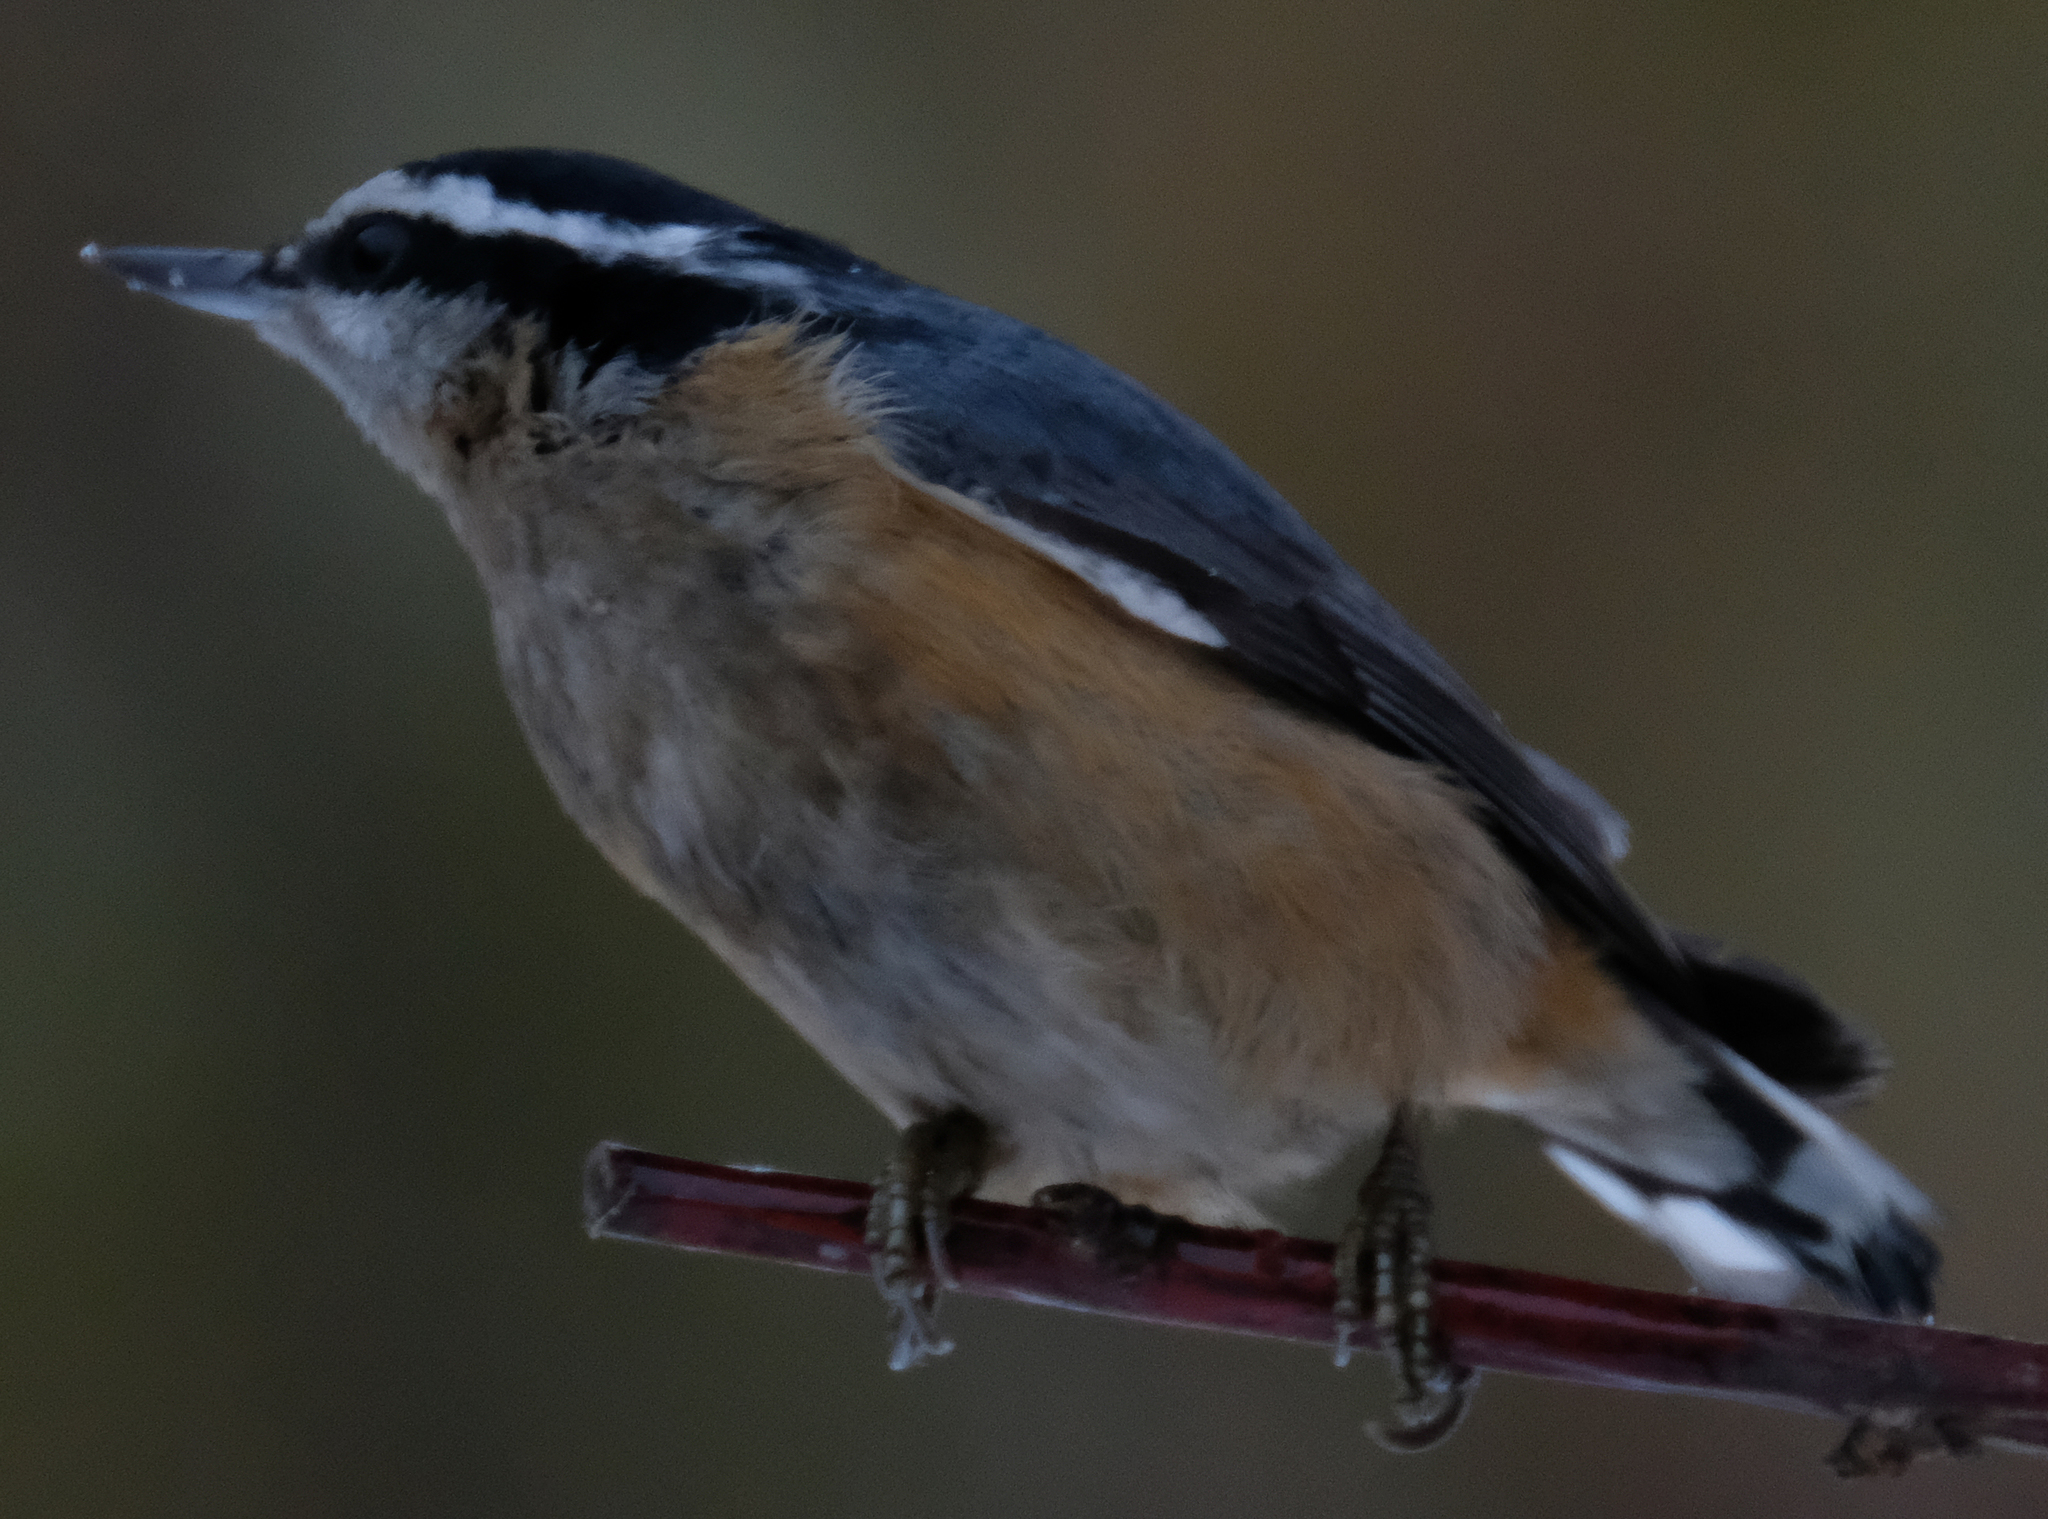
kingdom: Animalia
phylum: Chordata
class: Aves
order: Passeriformes
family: Sittidae
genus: Sitta
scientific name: Sitta canadensis
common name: Red-breasted nuthatch
